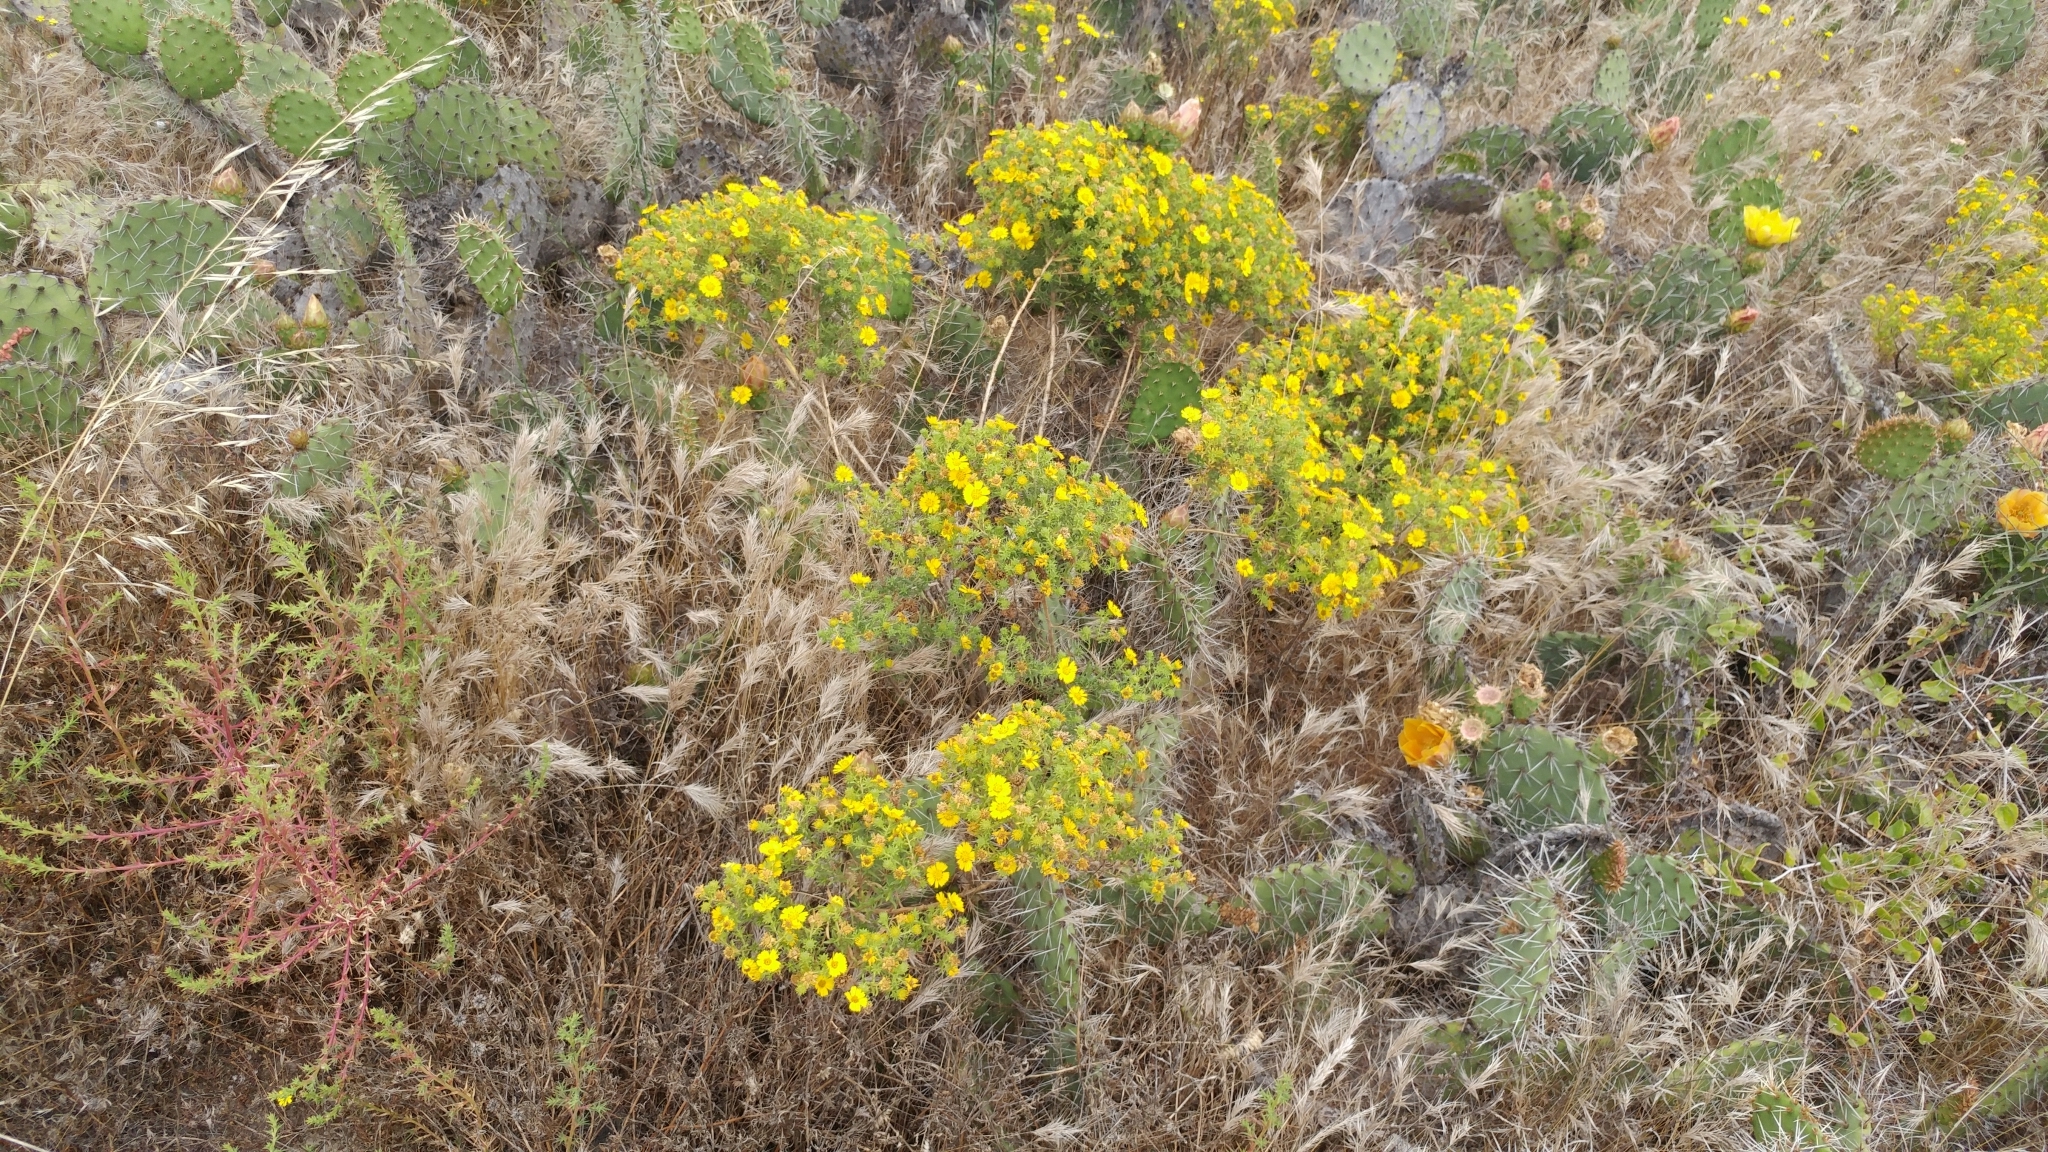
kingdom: Plantae
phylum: Tracheophyta
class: Magnoliopsida
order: Asterales
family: Asteraceae
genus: Deinandra
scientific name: Deinandra clementina
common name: Island tarplant
